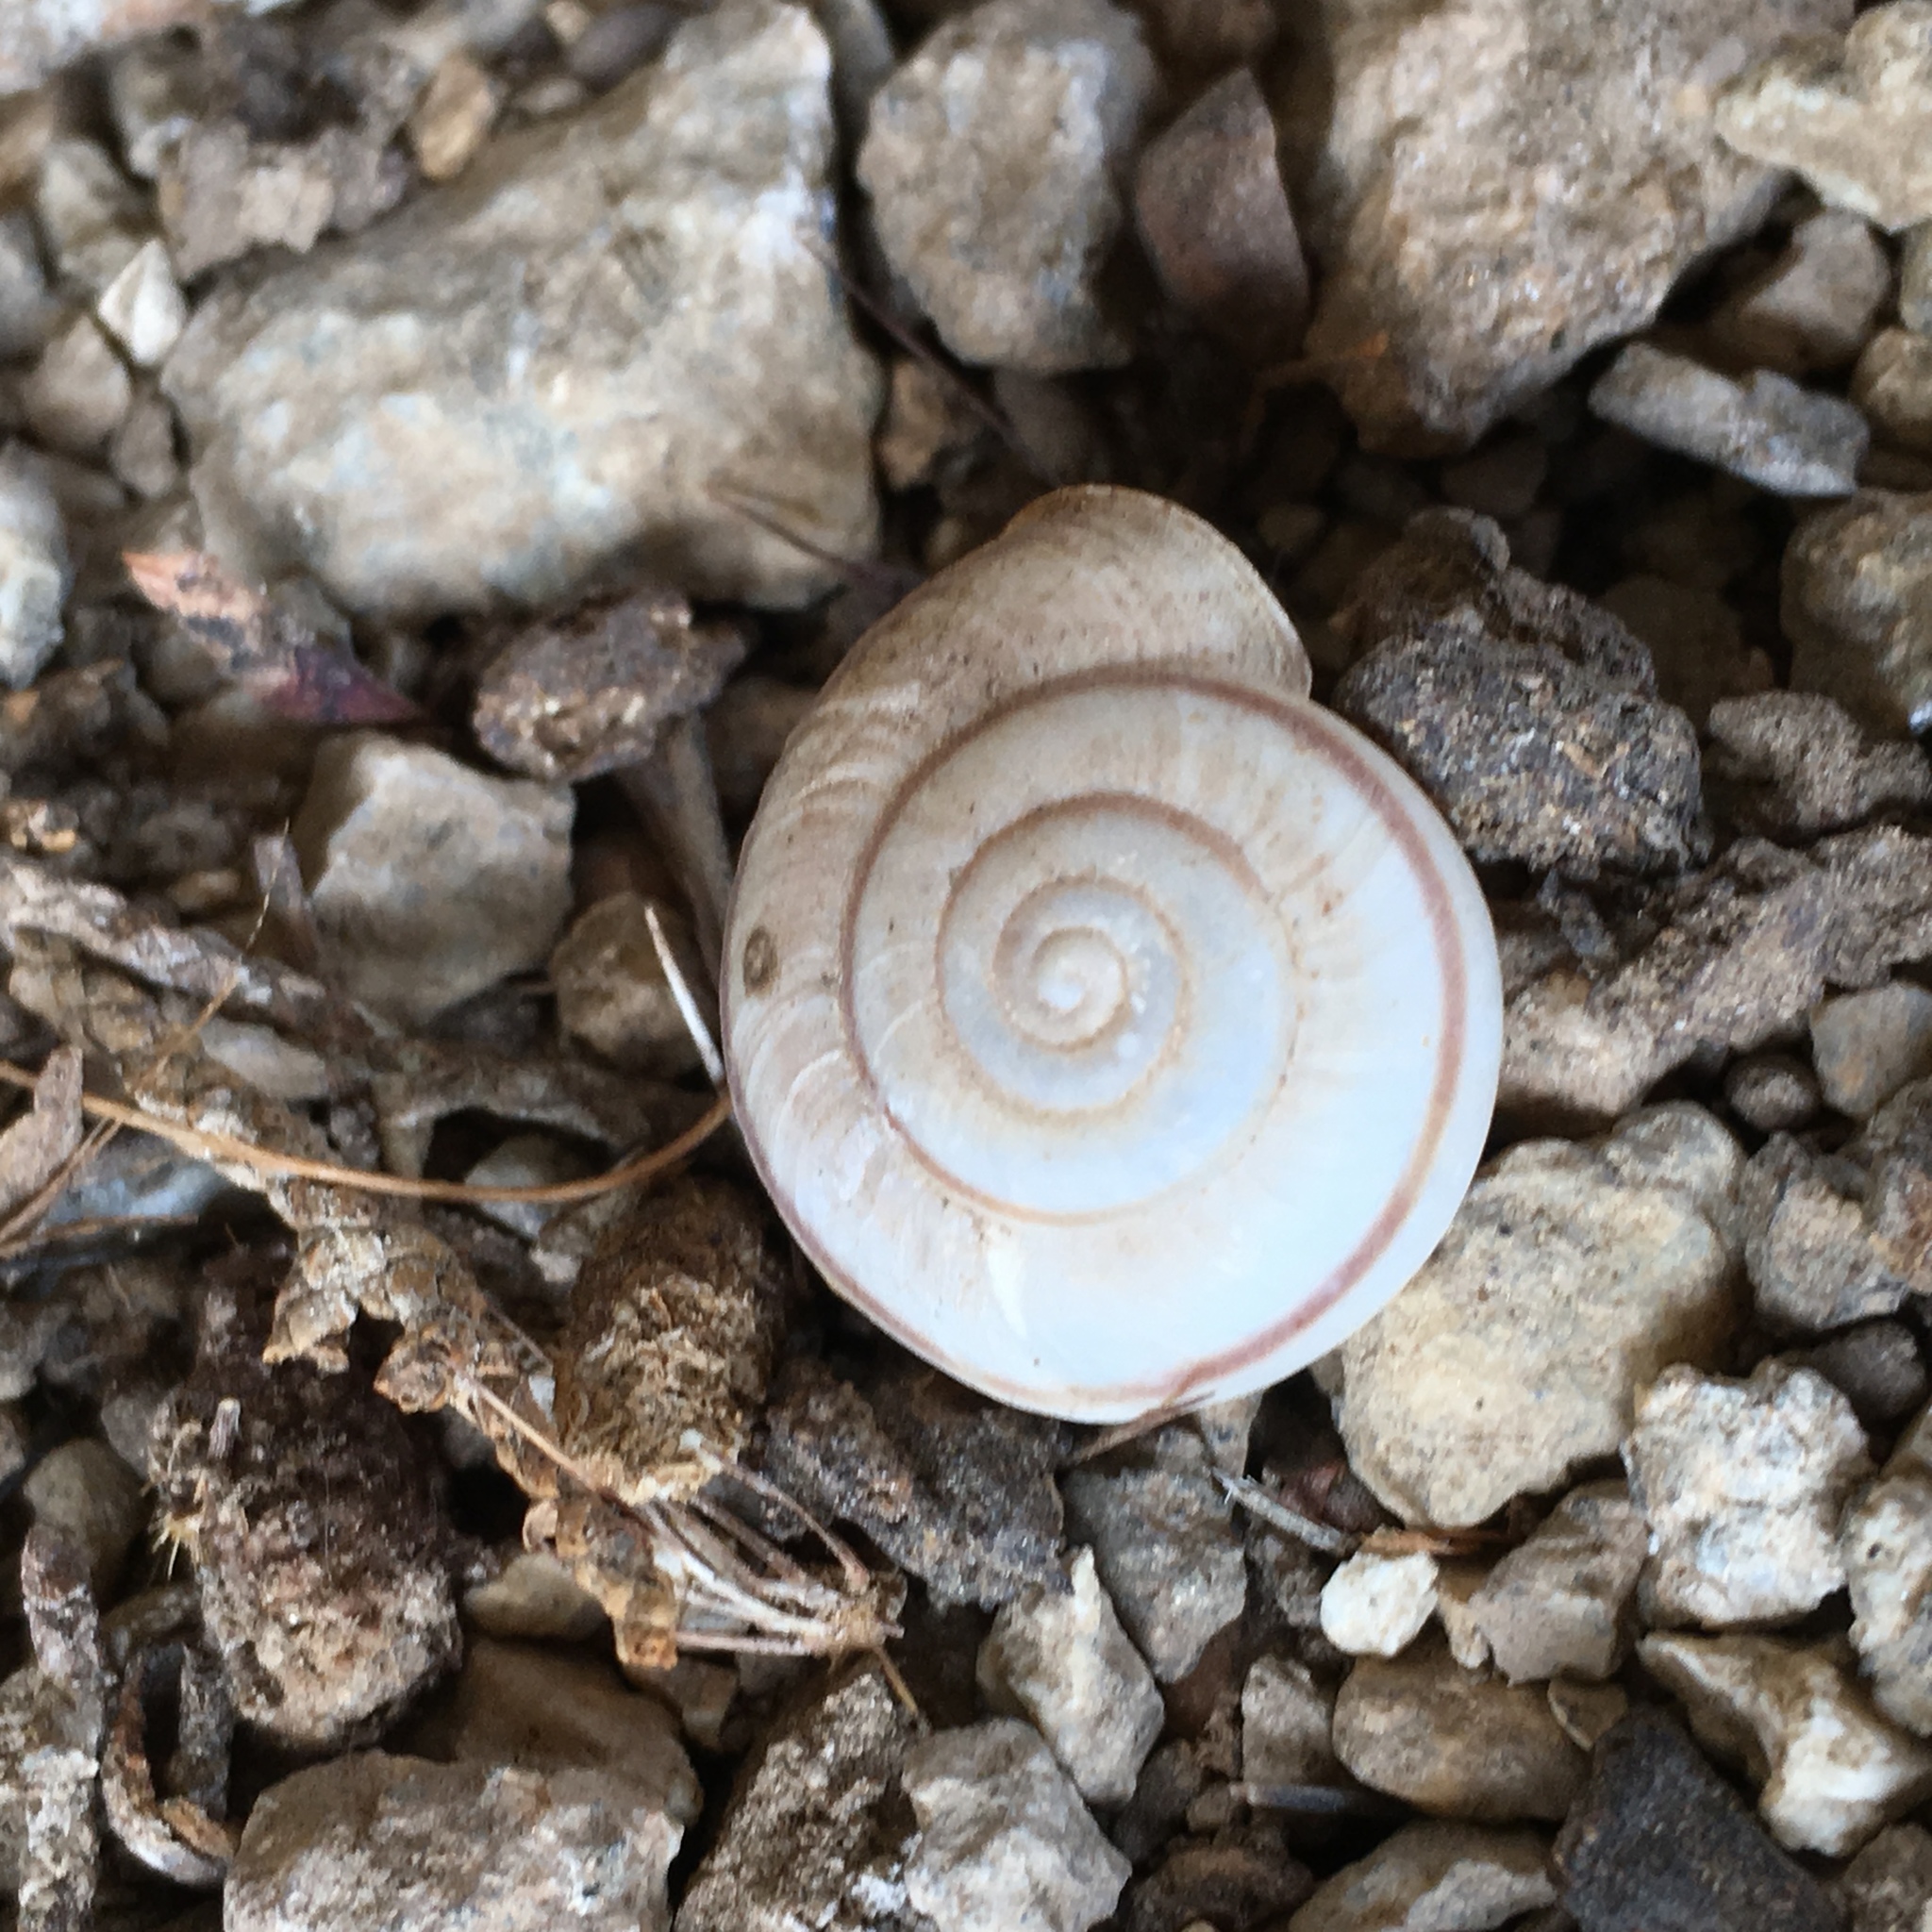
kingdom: Animalia
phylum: Mollusca
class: Gastropoda
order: Stylommatophora
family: Xanthonychidae
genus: Sonorelix
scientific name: Sonorelix borregoensis
